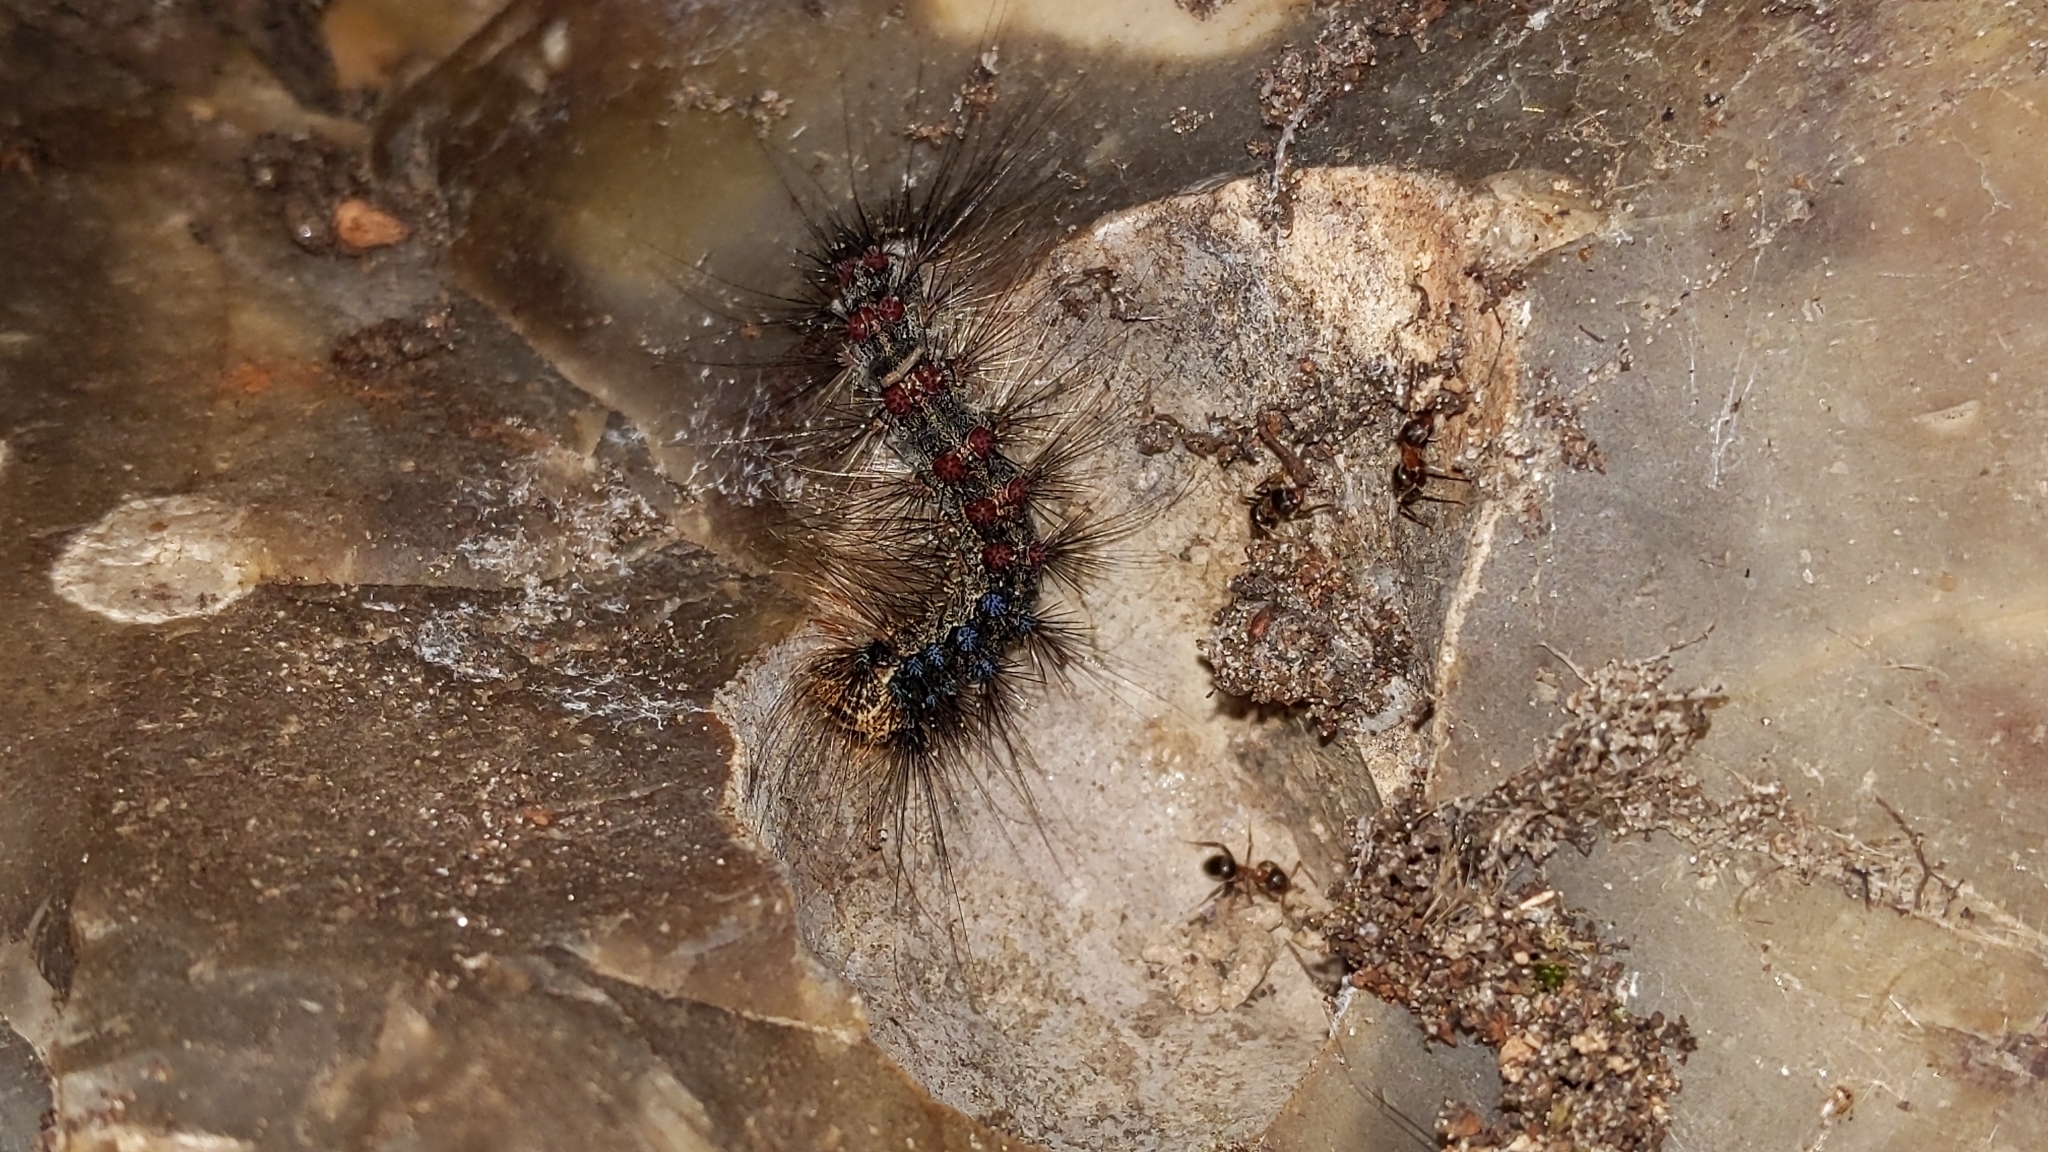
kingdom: Animalia
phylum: Arthropoda
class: Insecta
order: Lepidoptera
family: Erebidae
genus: Lymantria
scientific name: Lymantria dispar
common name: Gypsy moth
